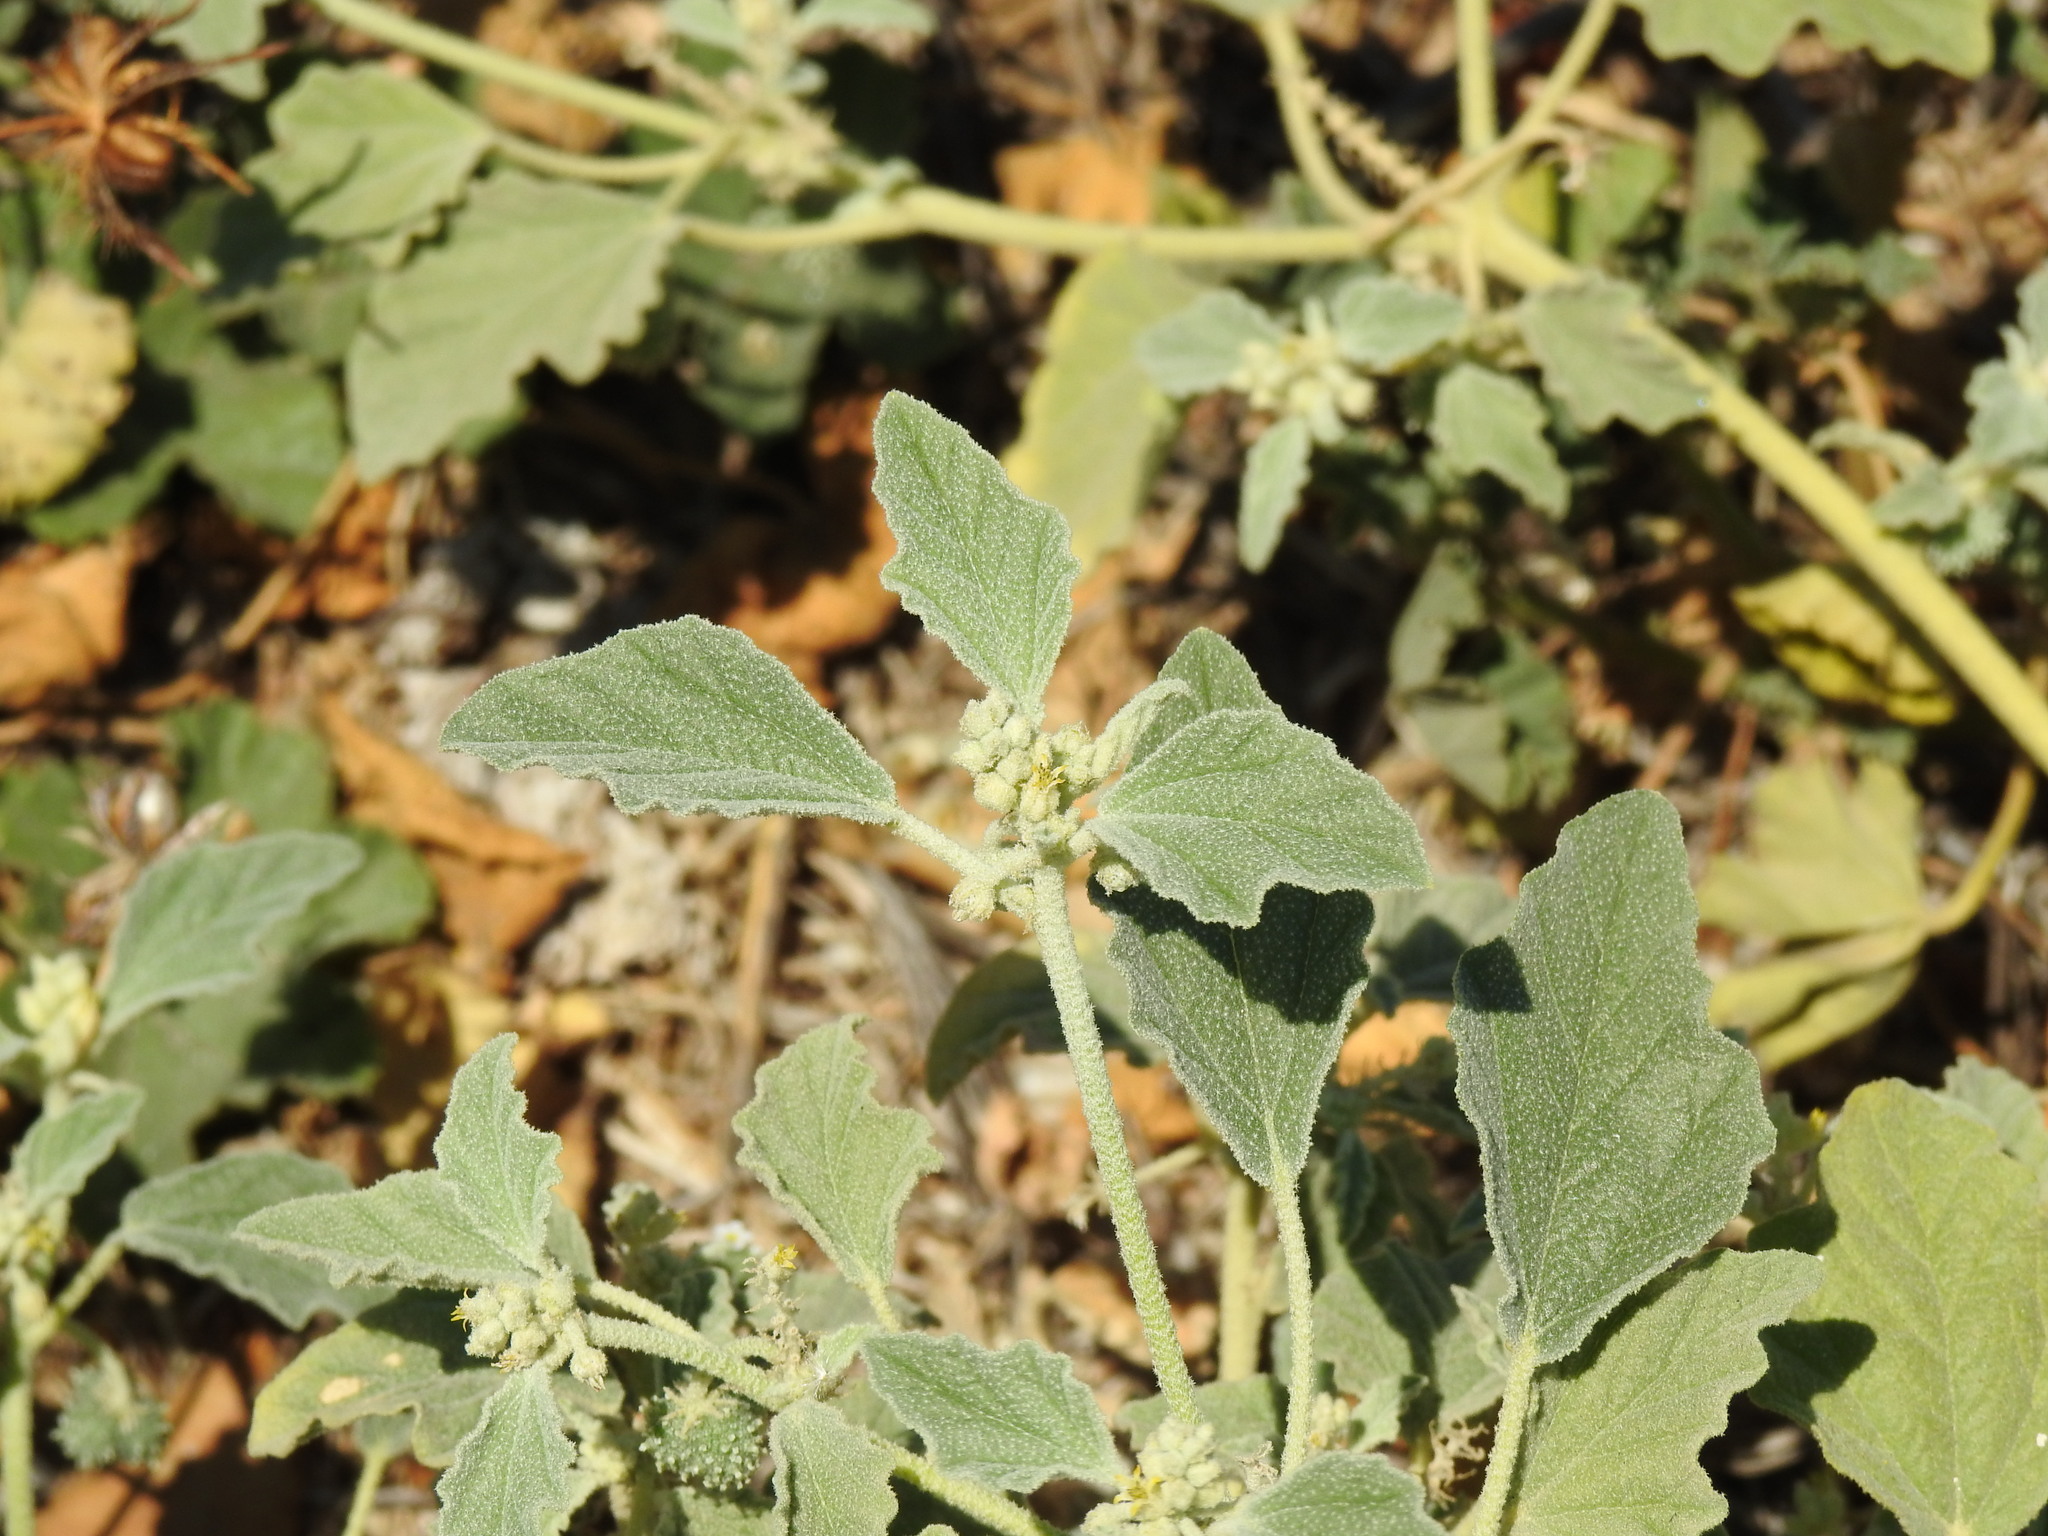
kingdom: Plantae
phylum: Tracheophyta
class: Magnoliopsida
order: Malpighiales
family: Euphorbiaceae
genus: Chrozophora
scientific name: Chrozophora tinctoria
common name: Dyer's litmus
